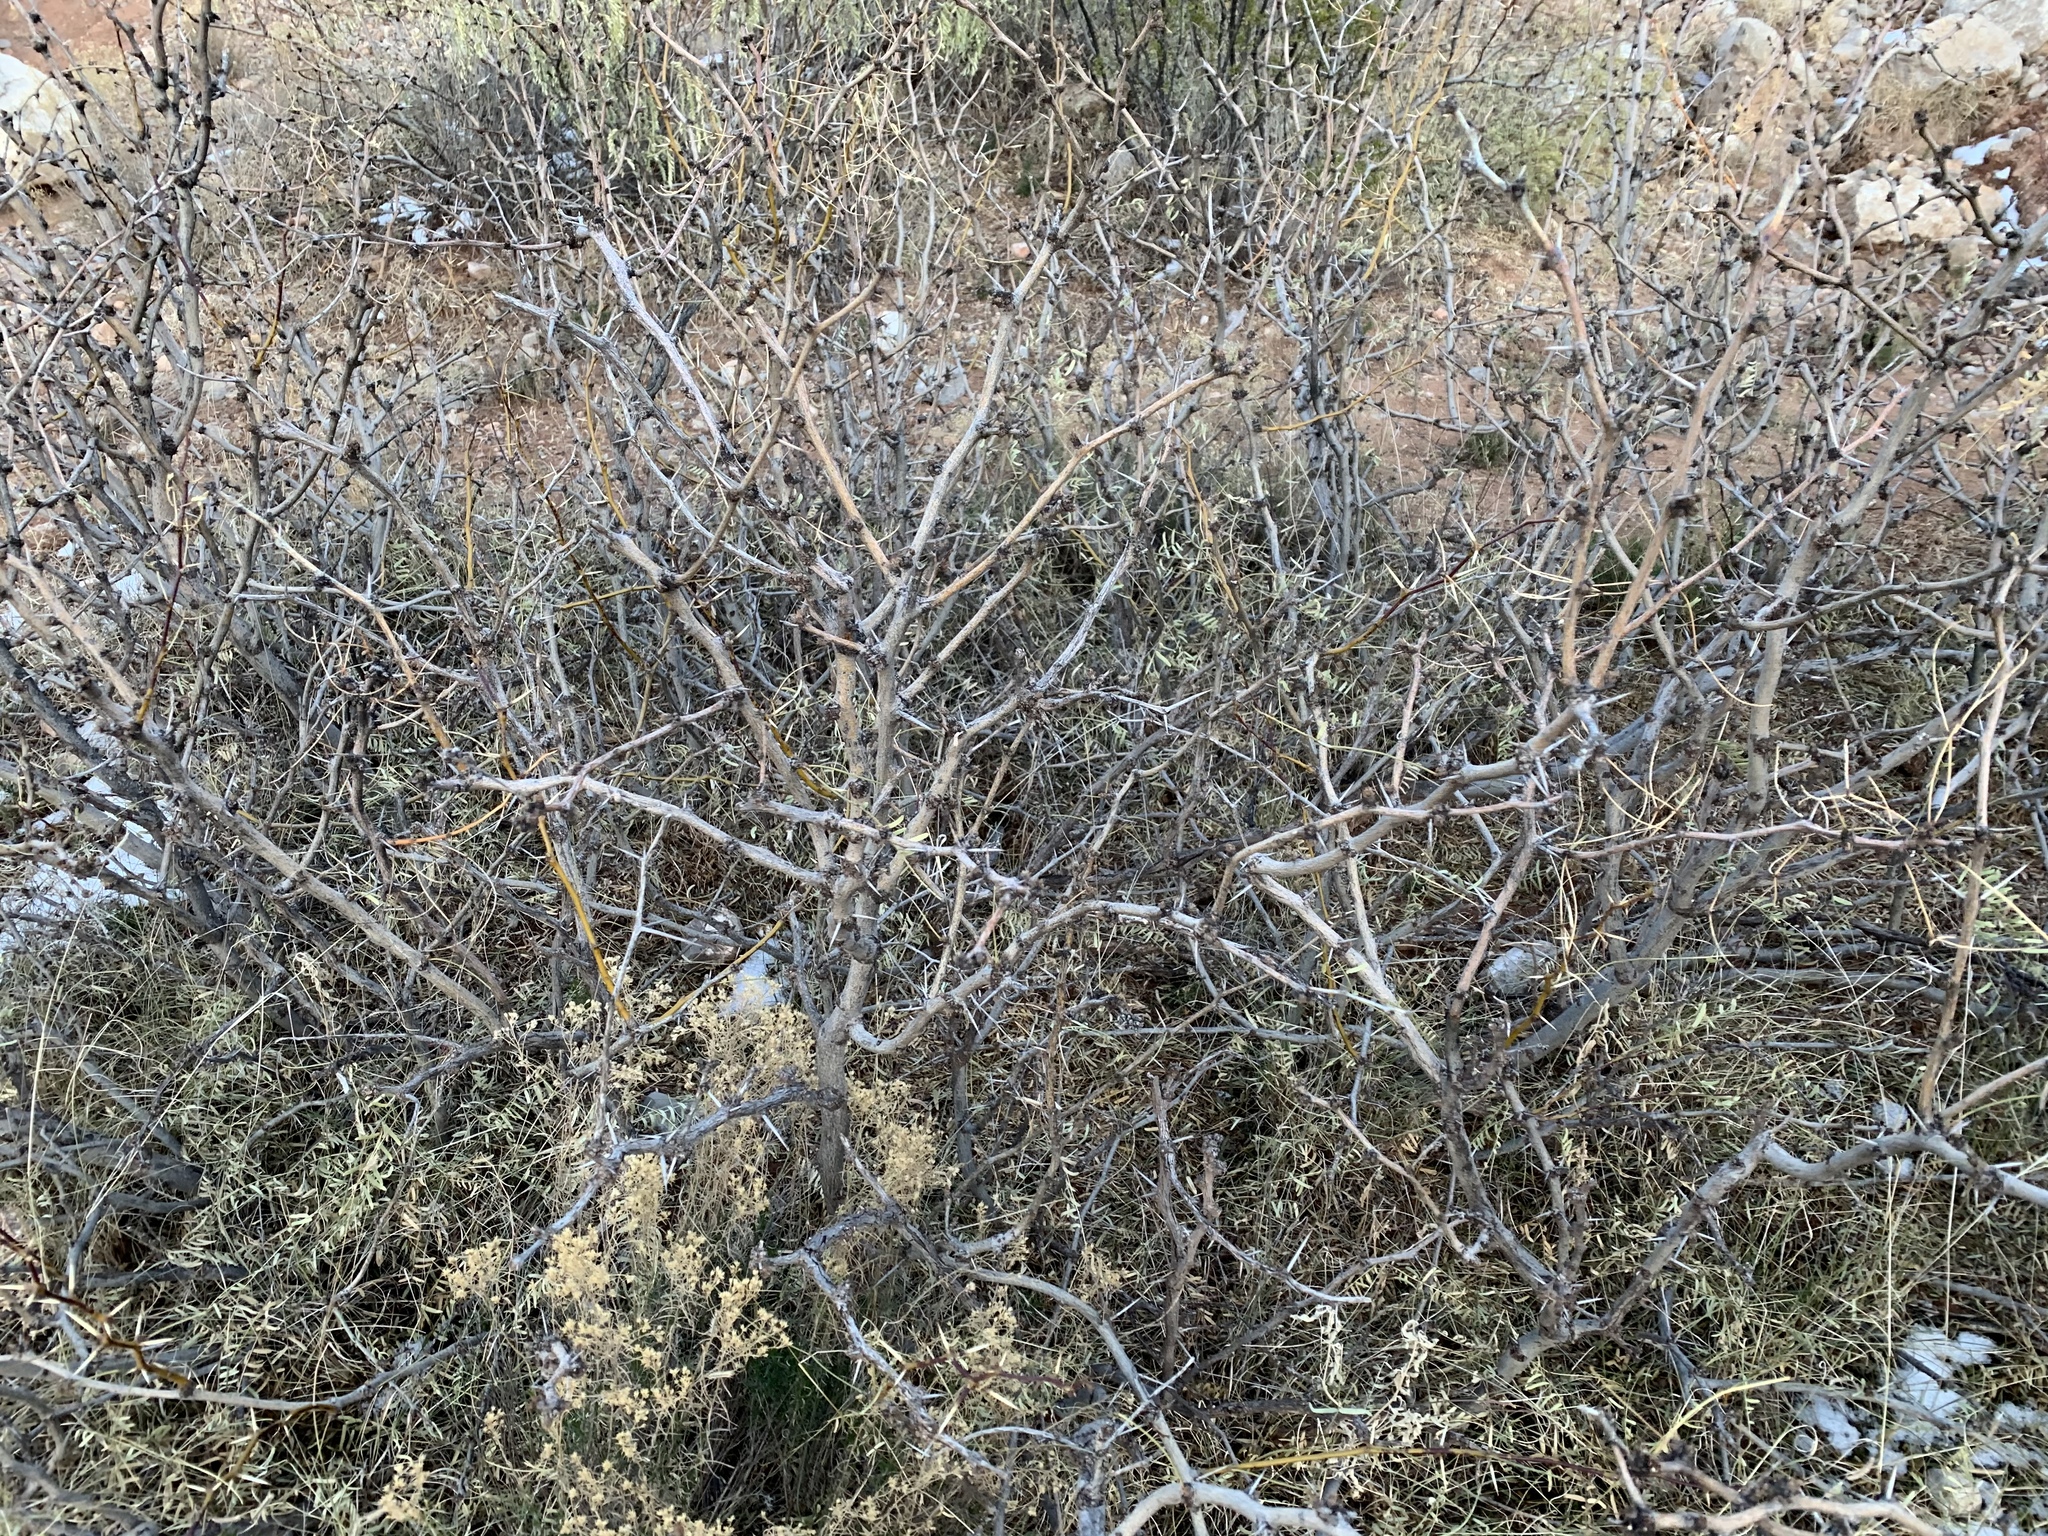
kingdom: Plantae
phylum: Tracheophyta
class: Magnoliopsida
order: Fabales
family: Fabaceae
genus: Prosopis
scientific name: Prosopis glandulosa
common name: Honey mesquite
